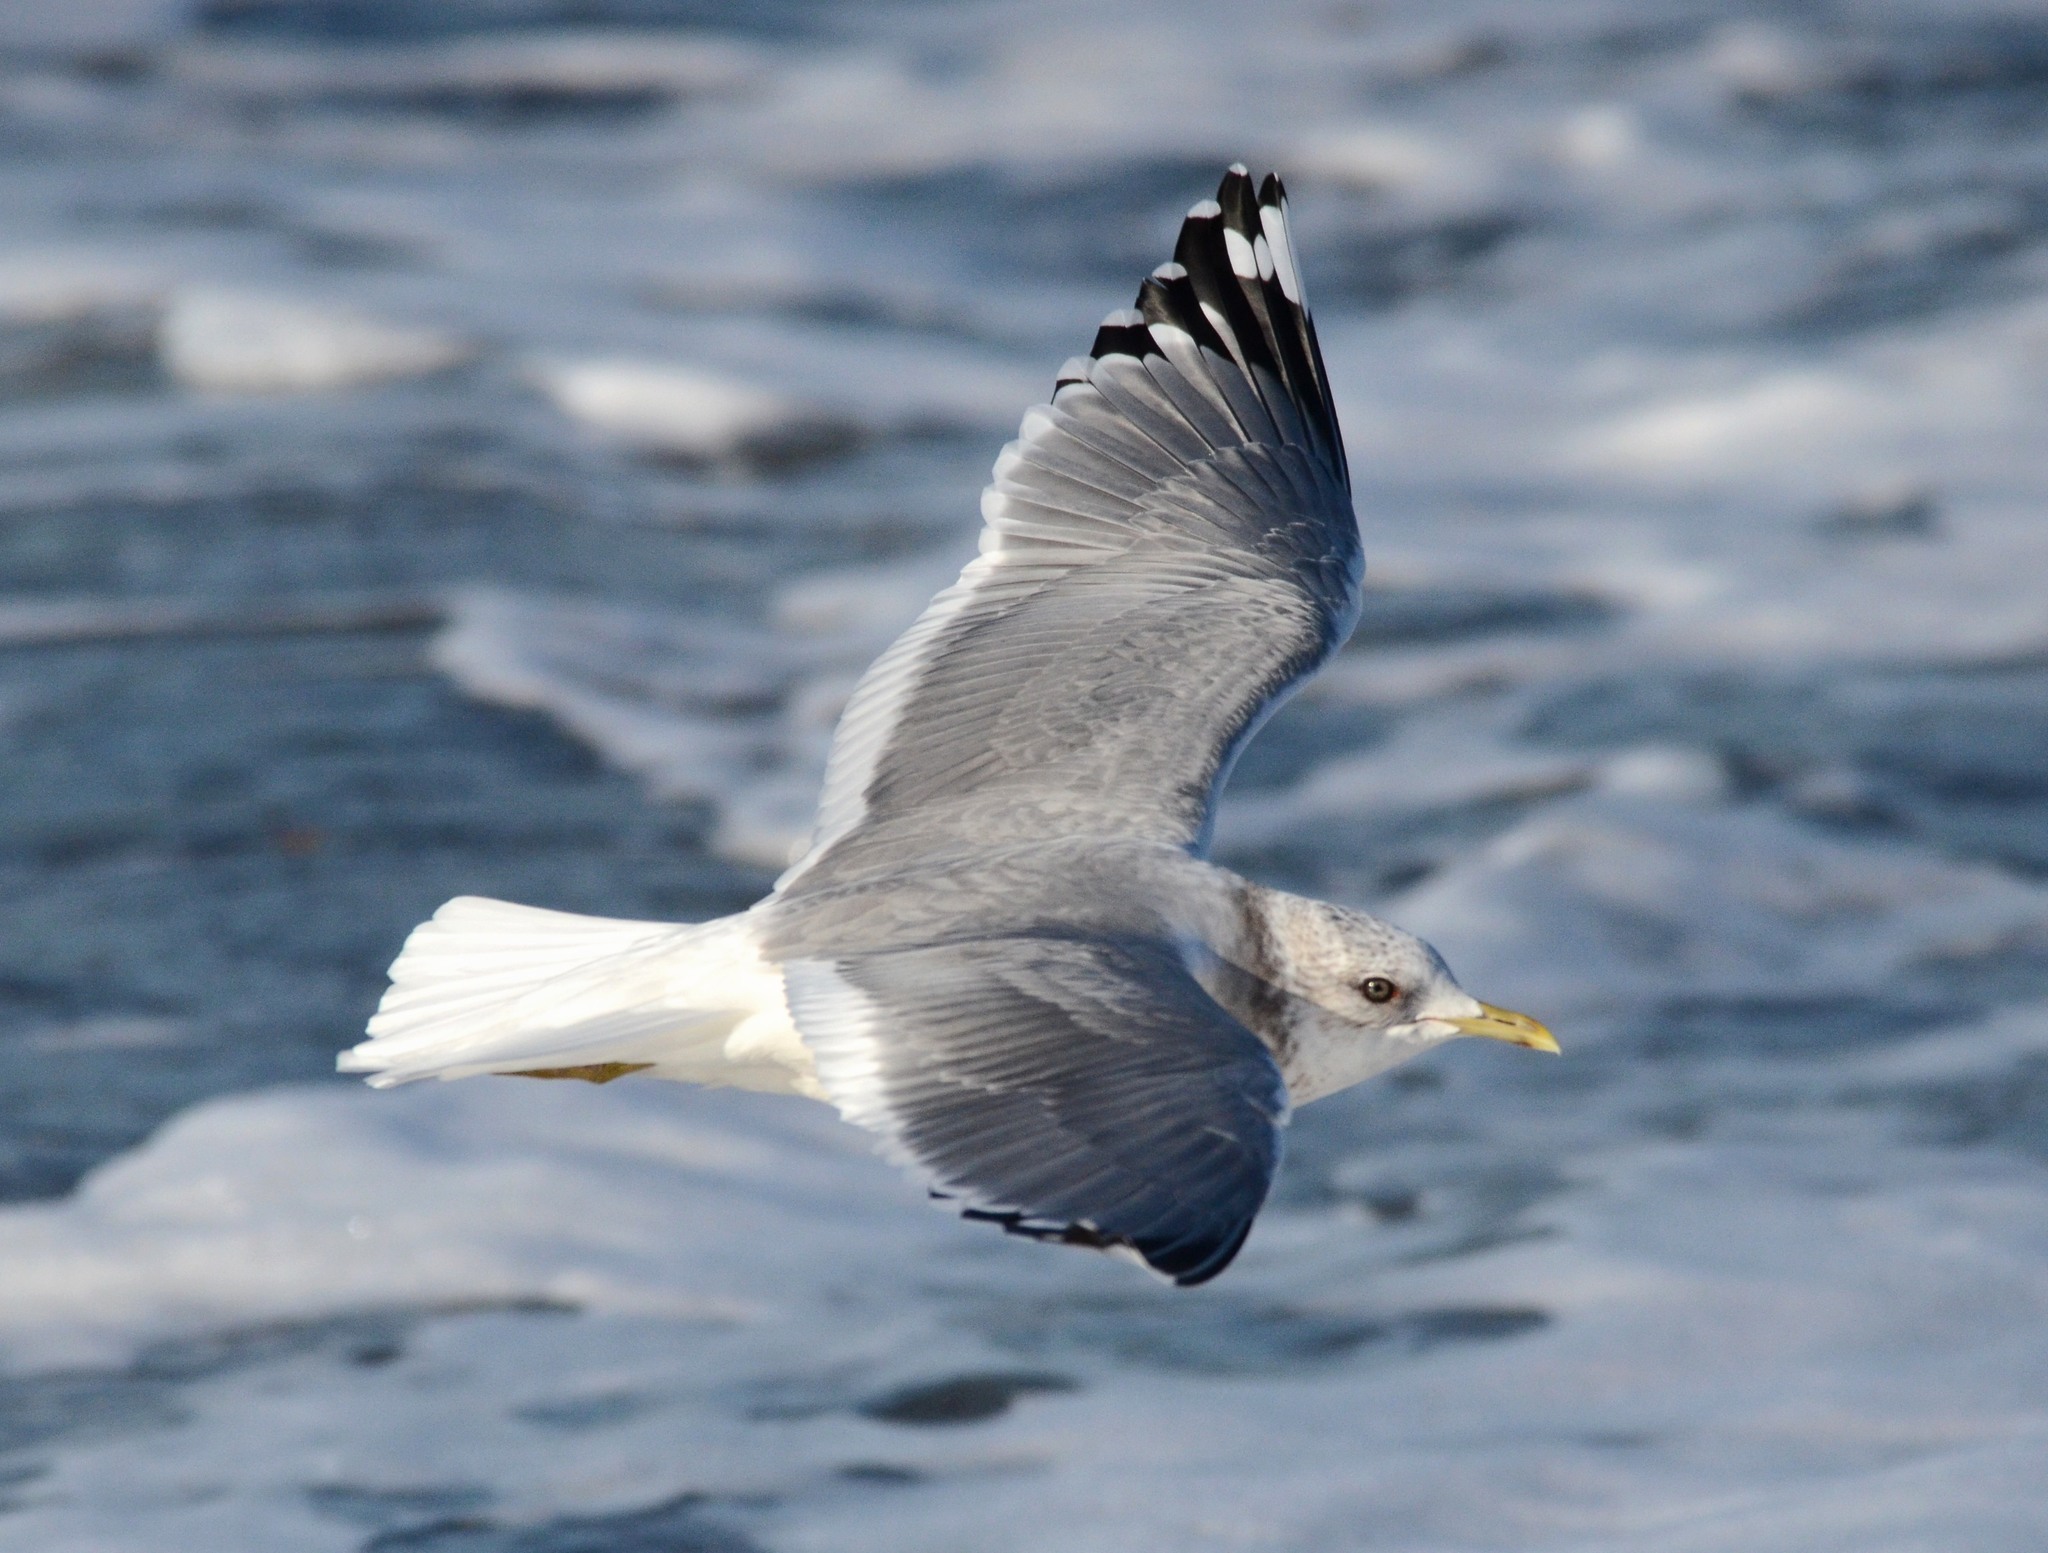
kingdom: Animalia
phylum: Chordata
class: Aves
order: Charadriiformes
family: Laridae
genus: Larus
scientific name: Larus brachyrhynchus
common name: Short-billed gull
